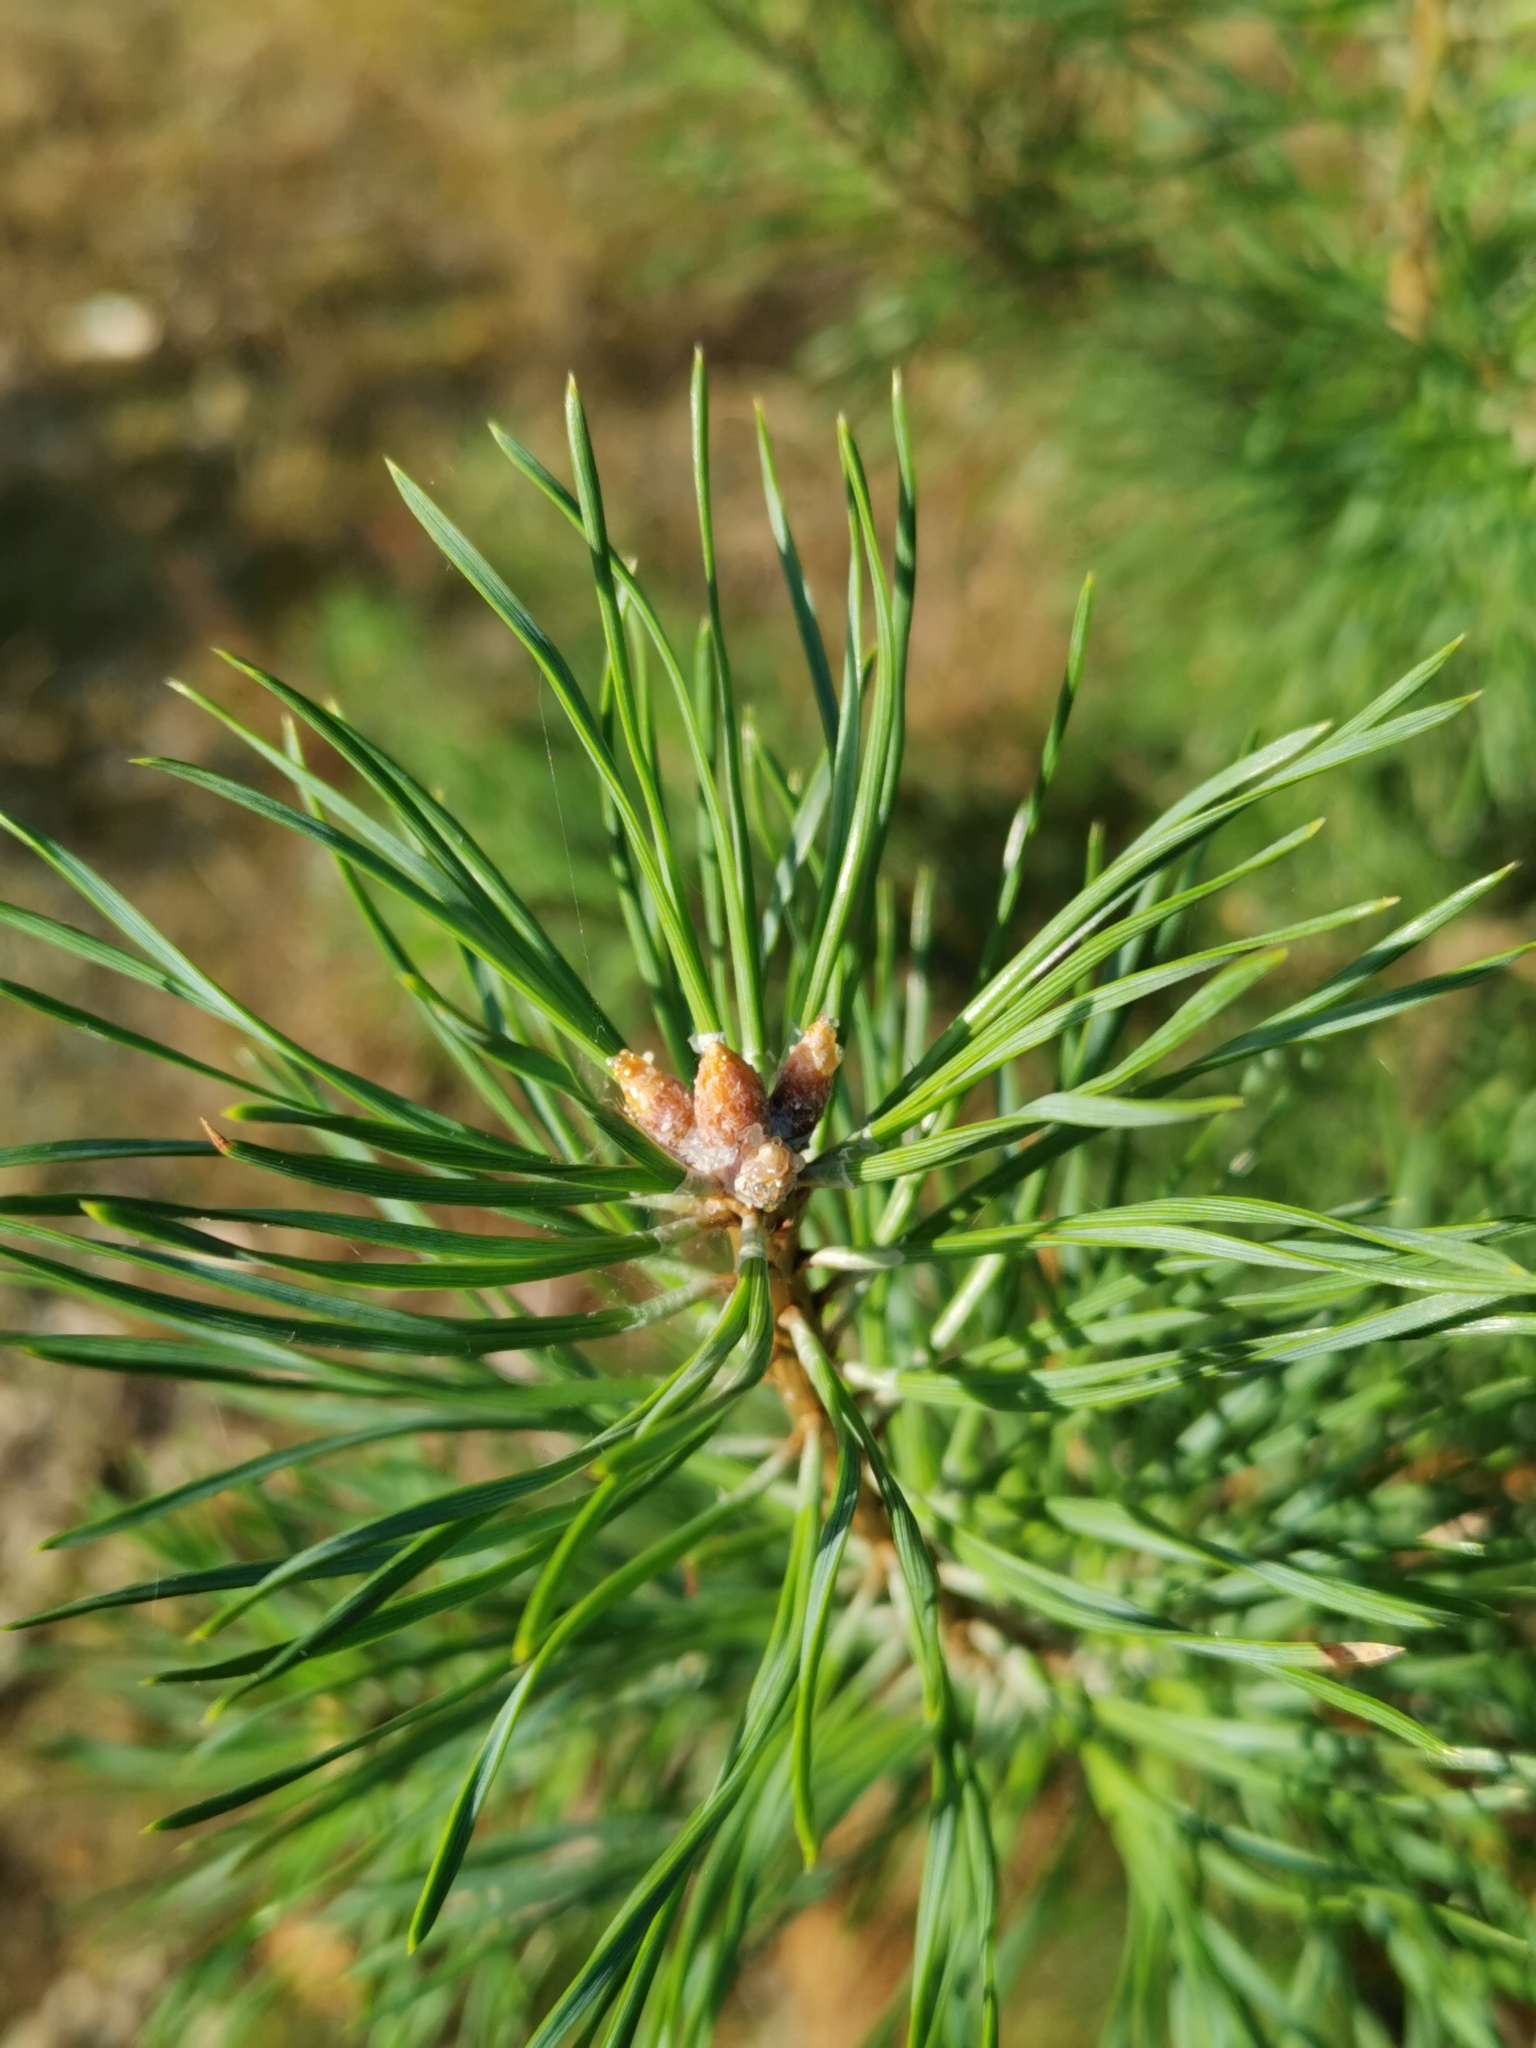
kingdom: Plantae
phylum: Tracheophyta
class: Pinopsida
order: Pinales
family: Pinaceae
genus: Pinus
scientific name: Pinus sylvestris
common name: Scots pine
